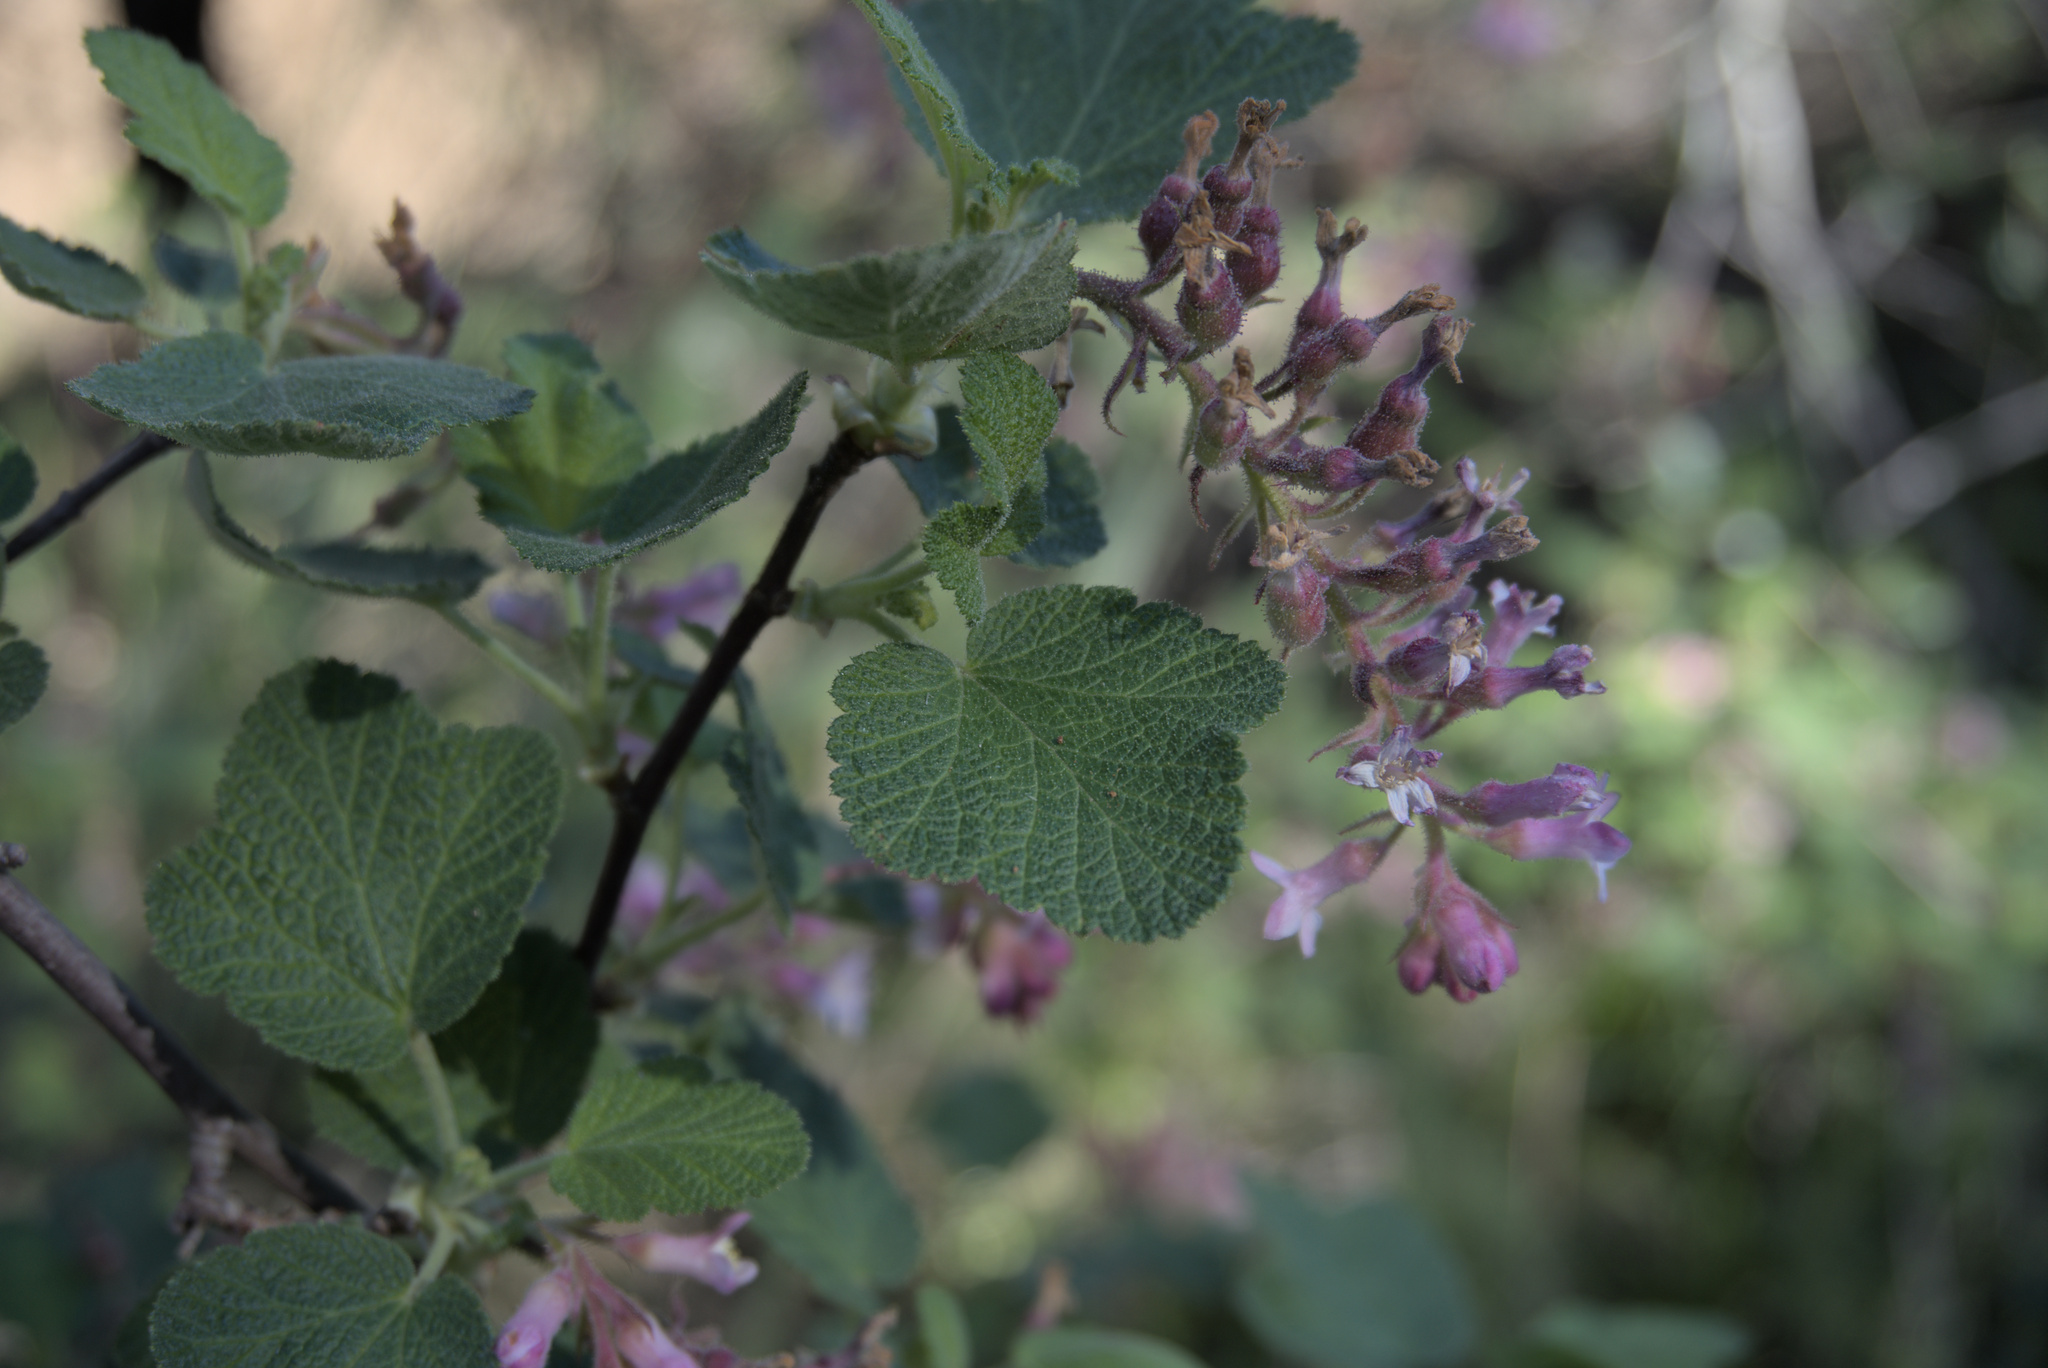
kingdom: Plantae
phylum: Tracheophyta
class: Magnoliopsida
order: Saxifragales
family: Grossulariaceae
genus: Ribes
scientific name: Ribes malvaceum
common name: Chaparral currant
